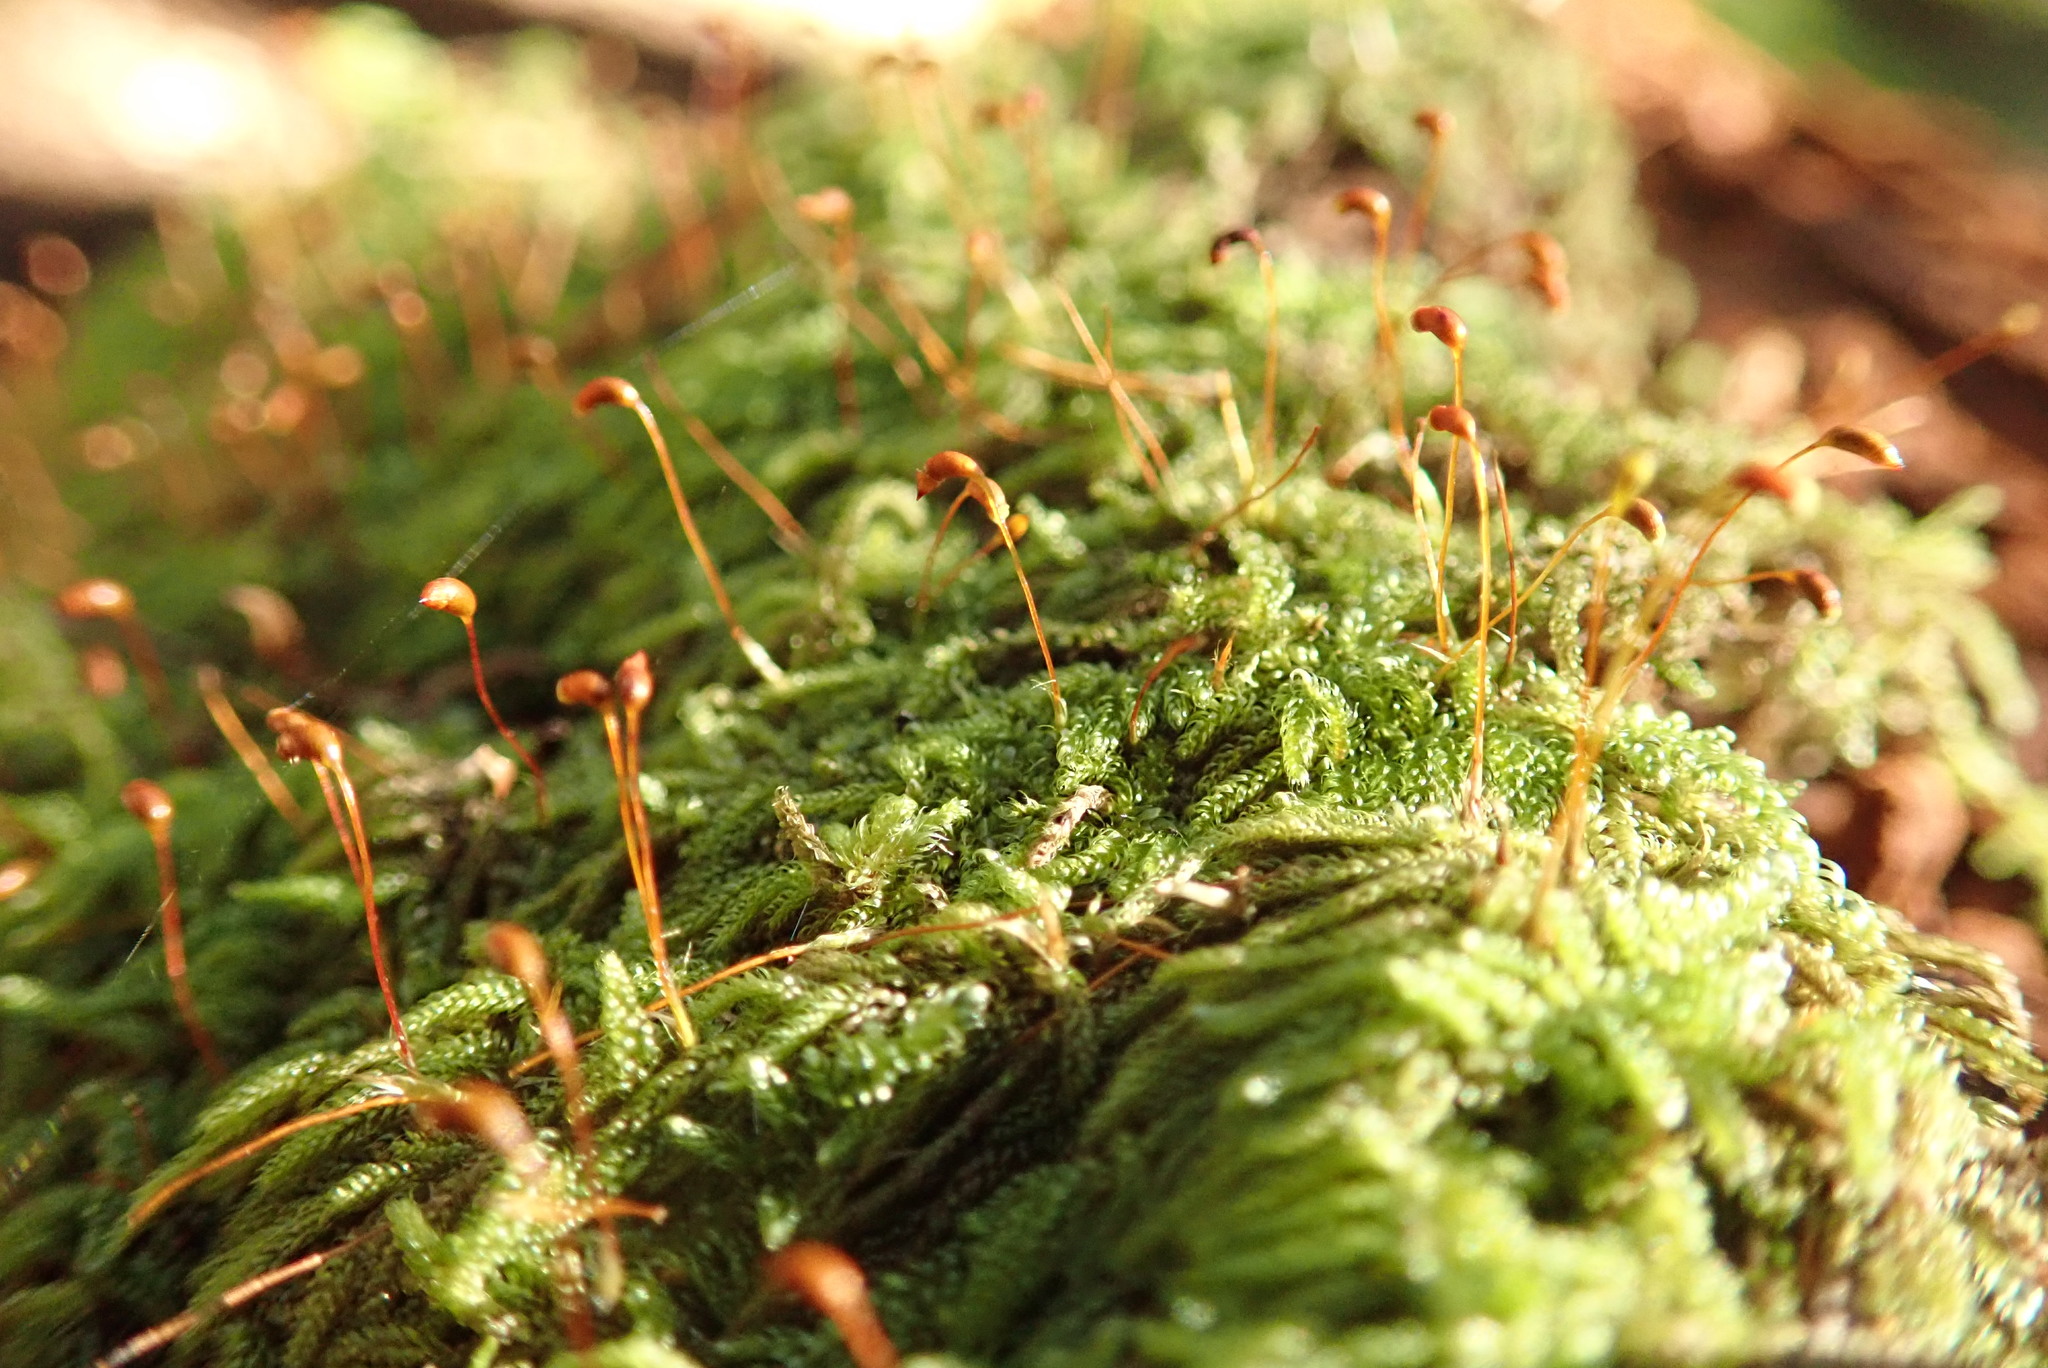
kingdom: Plantae
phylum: Bryophyta
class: Bryopsida
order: Hypnales
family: Pylaisiadelphaceae
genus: Trochophyllohypnum
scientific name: Trochophyllohypnum circinale
